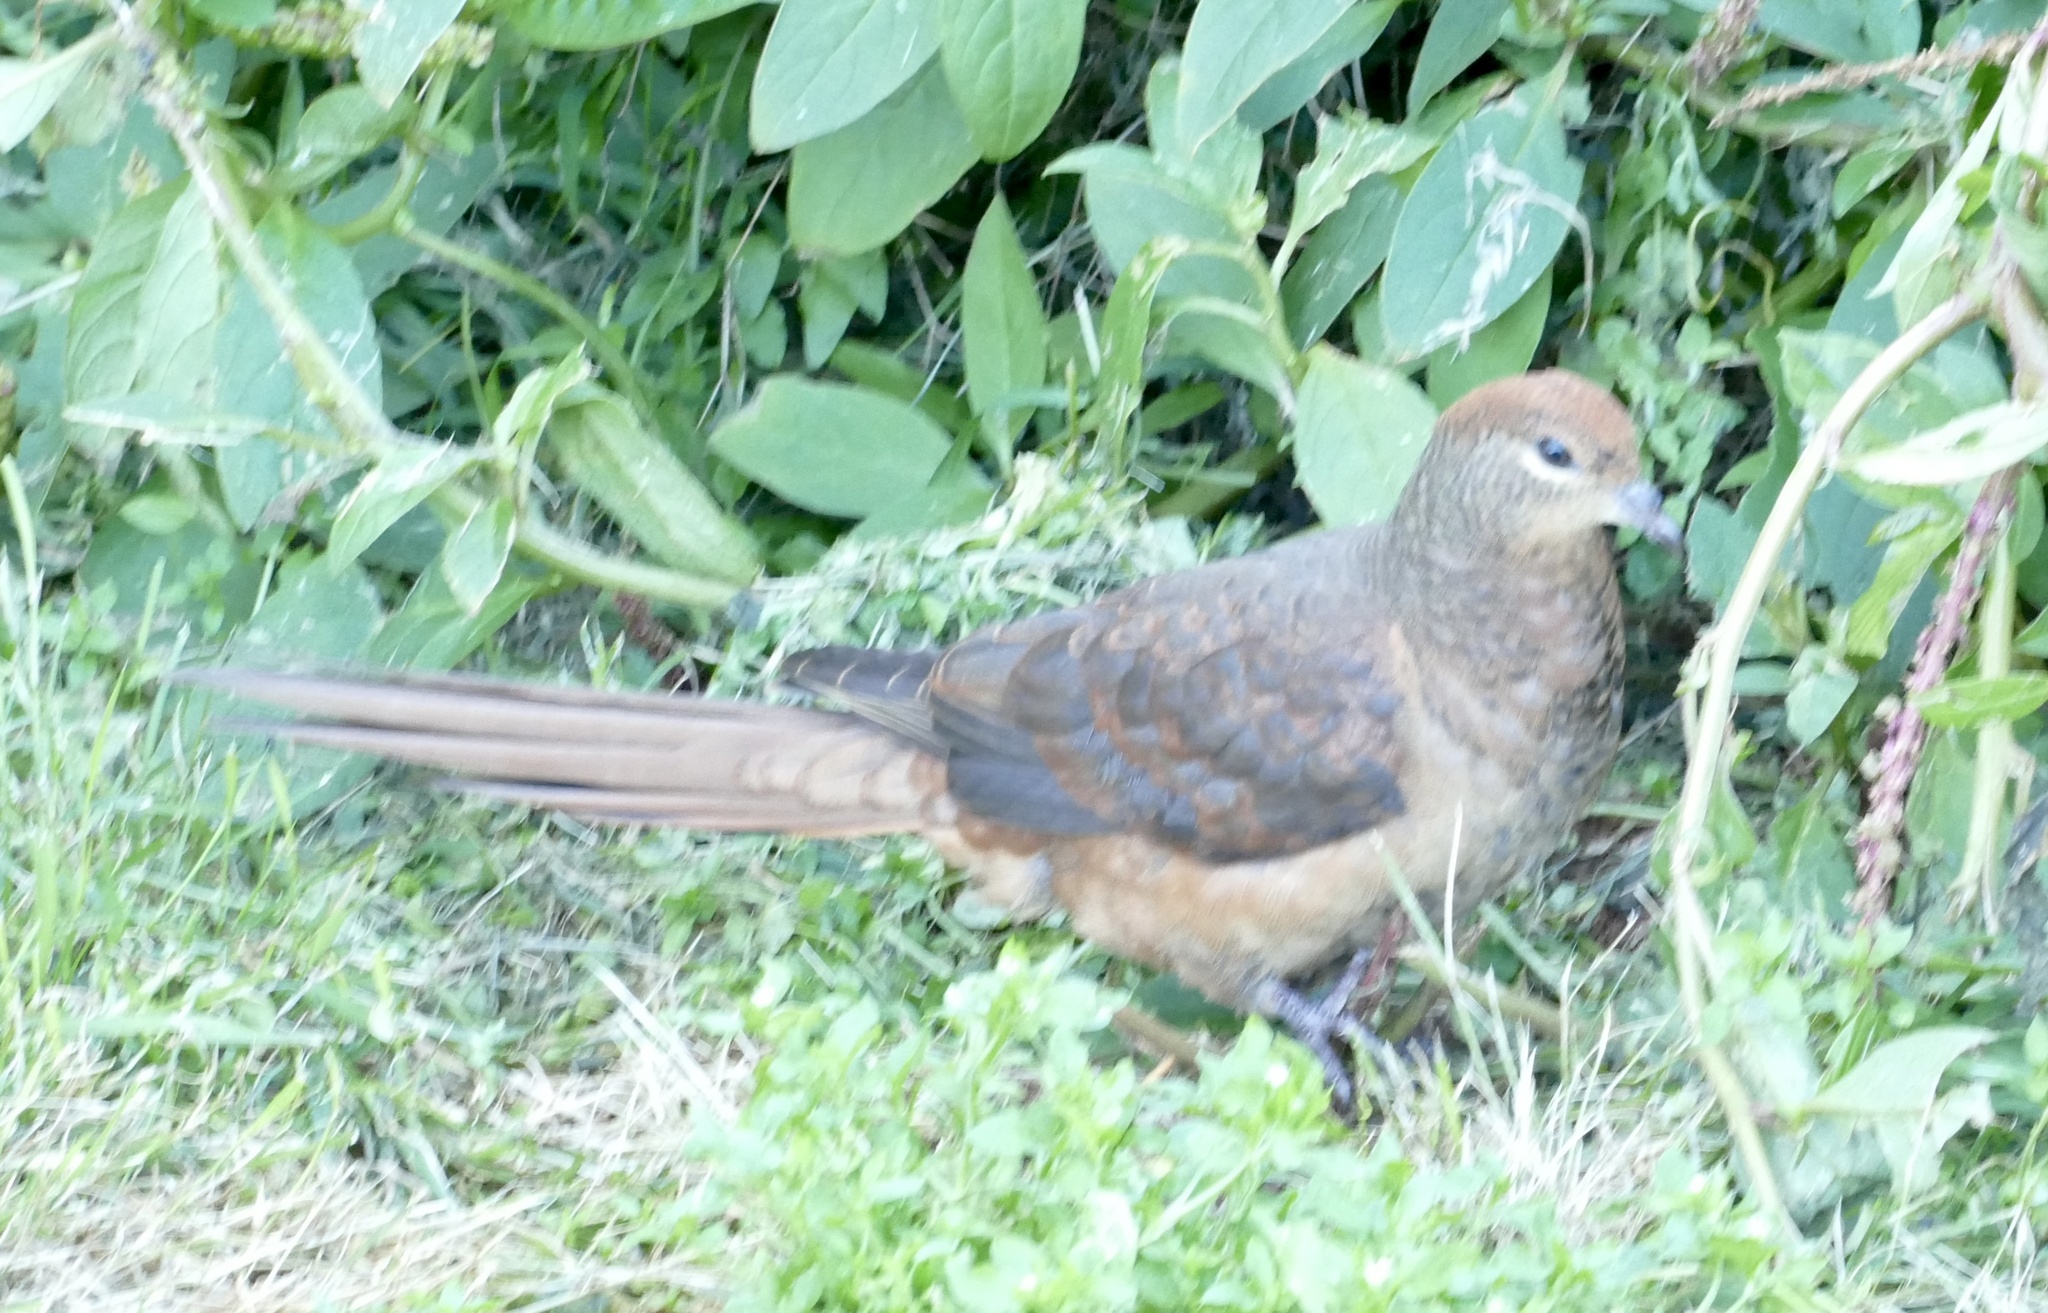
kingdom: Animalia
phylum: Chordata
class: Aves
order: Columbiformes
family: Columbidae
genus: Macropygia
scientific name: Macropygia phasianella
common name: Brown cuckoo-dove
